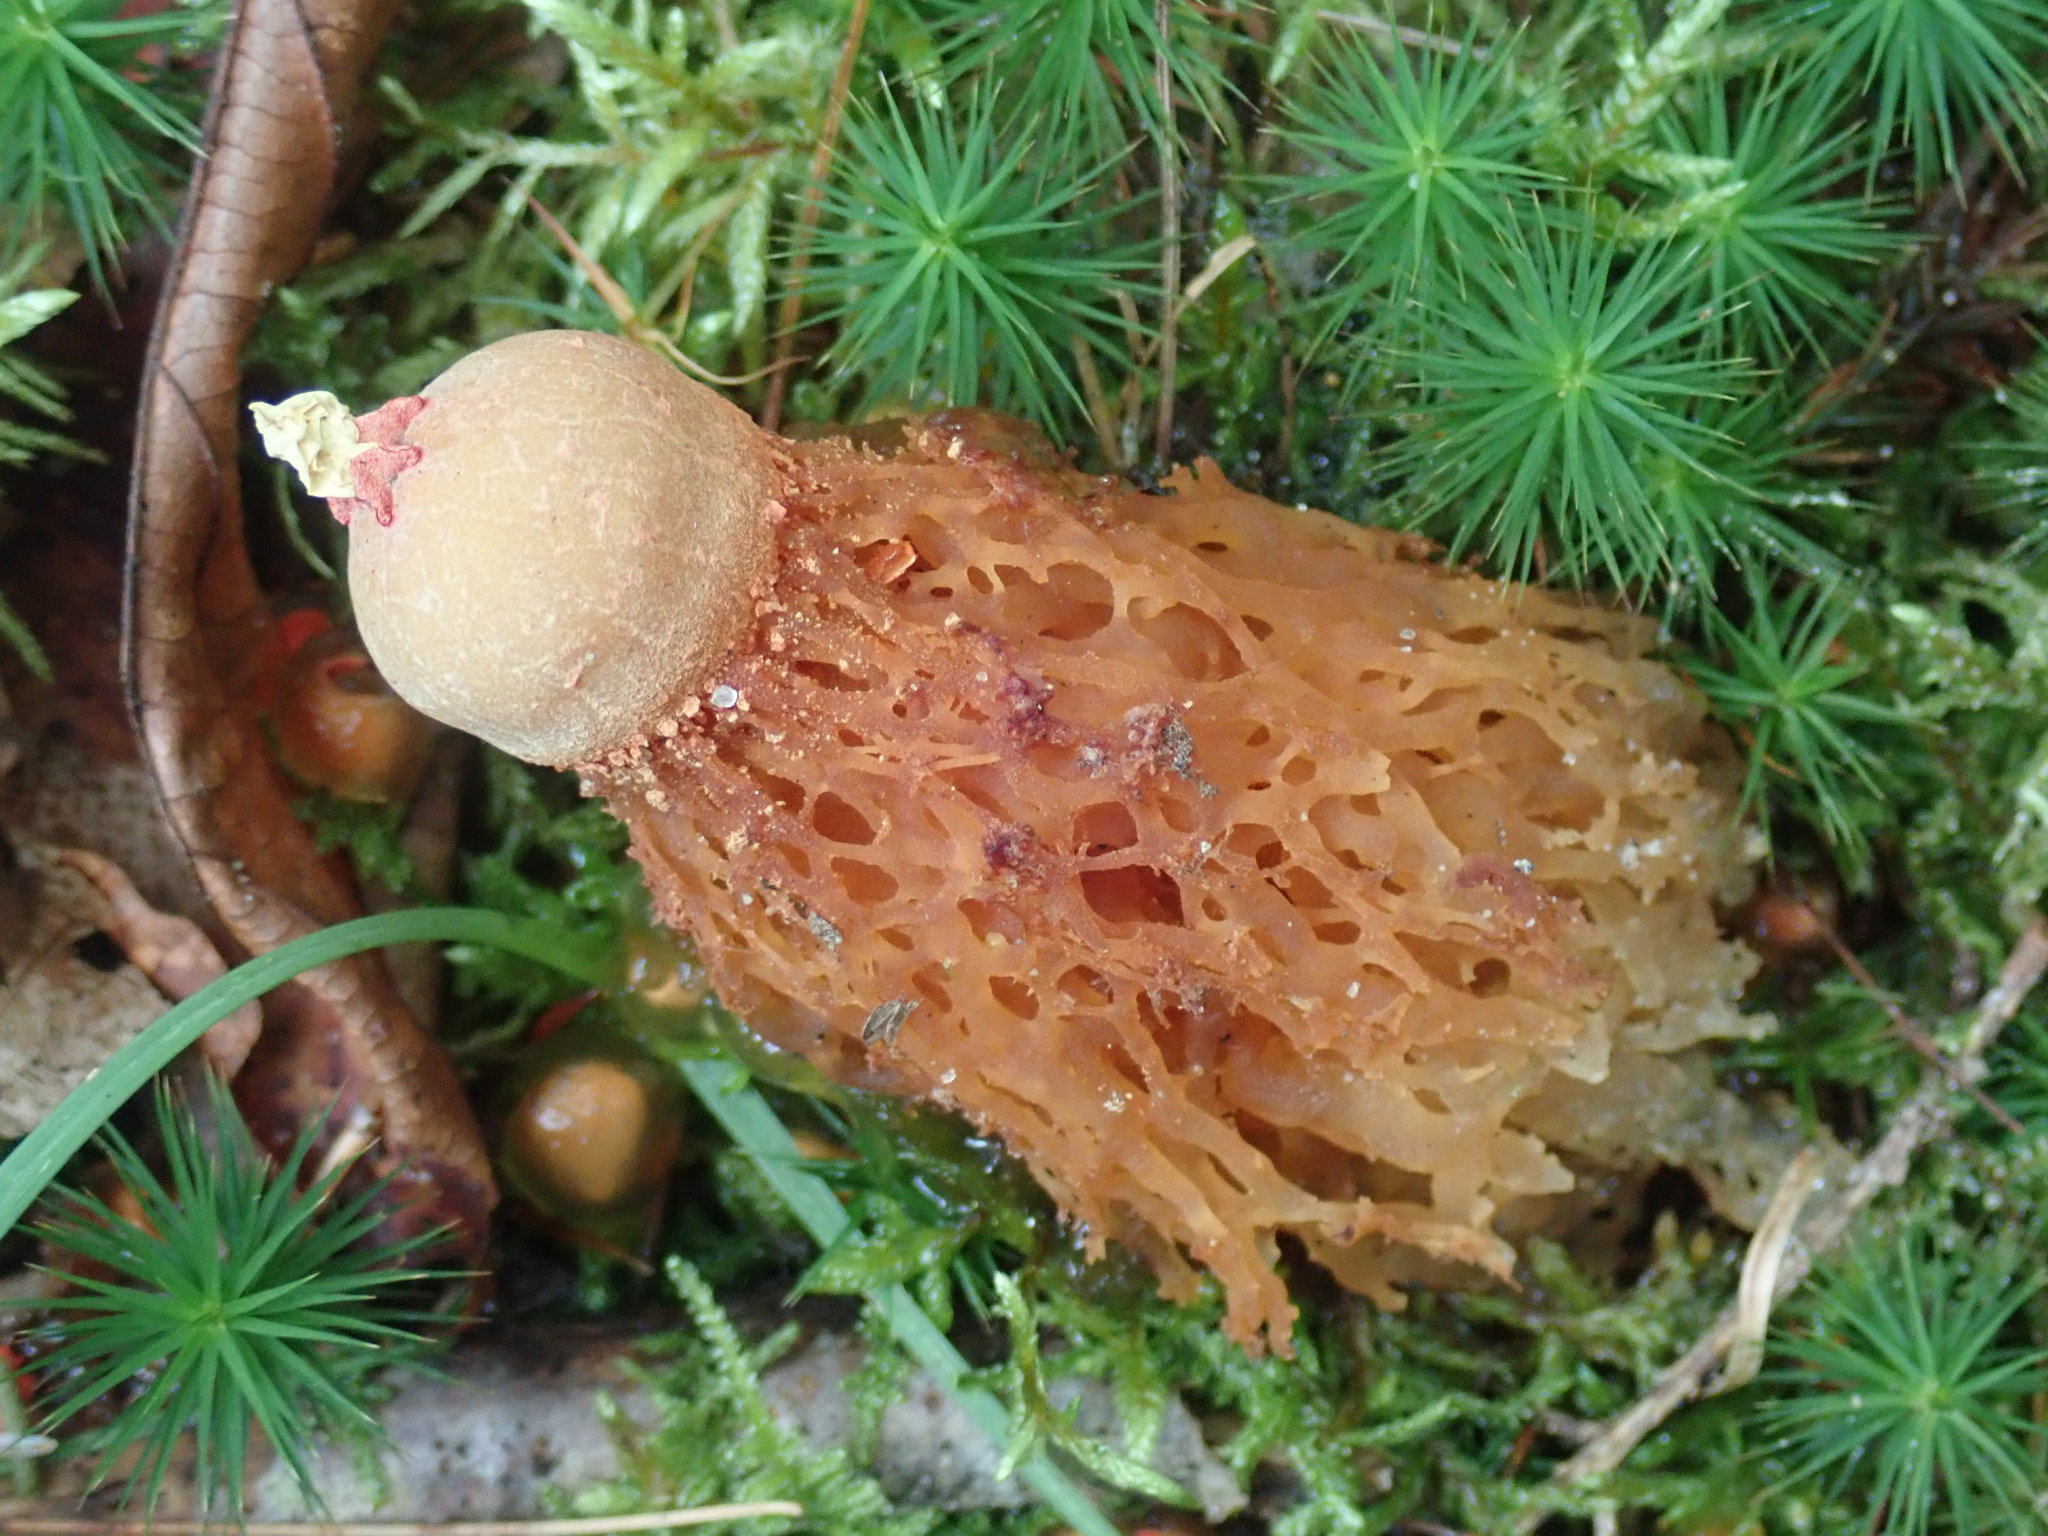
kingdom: Fungi
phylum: Basidiomycota
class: Agaricomycetes
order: Boletales
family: Calostomataceae
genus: Calostoma
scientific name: Calostoma cinnabarinum
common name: Stalked puffball-in-aspic
